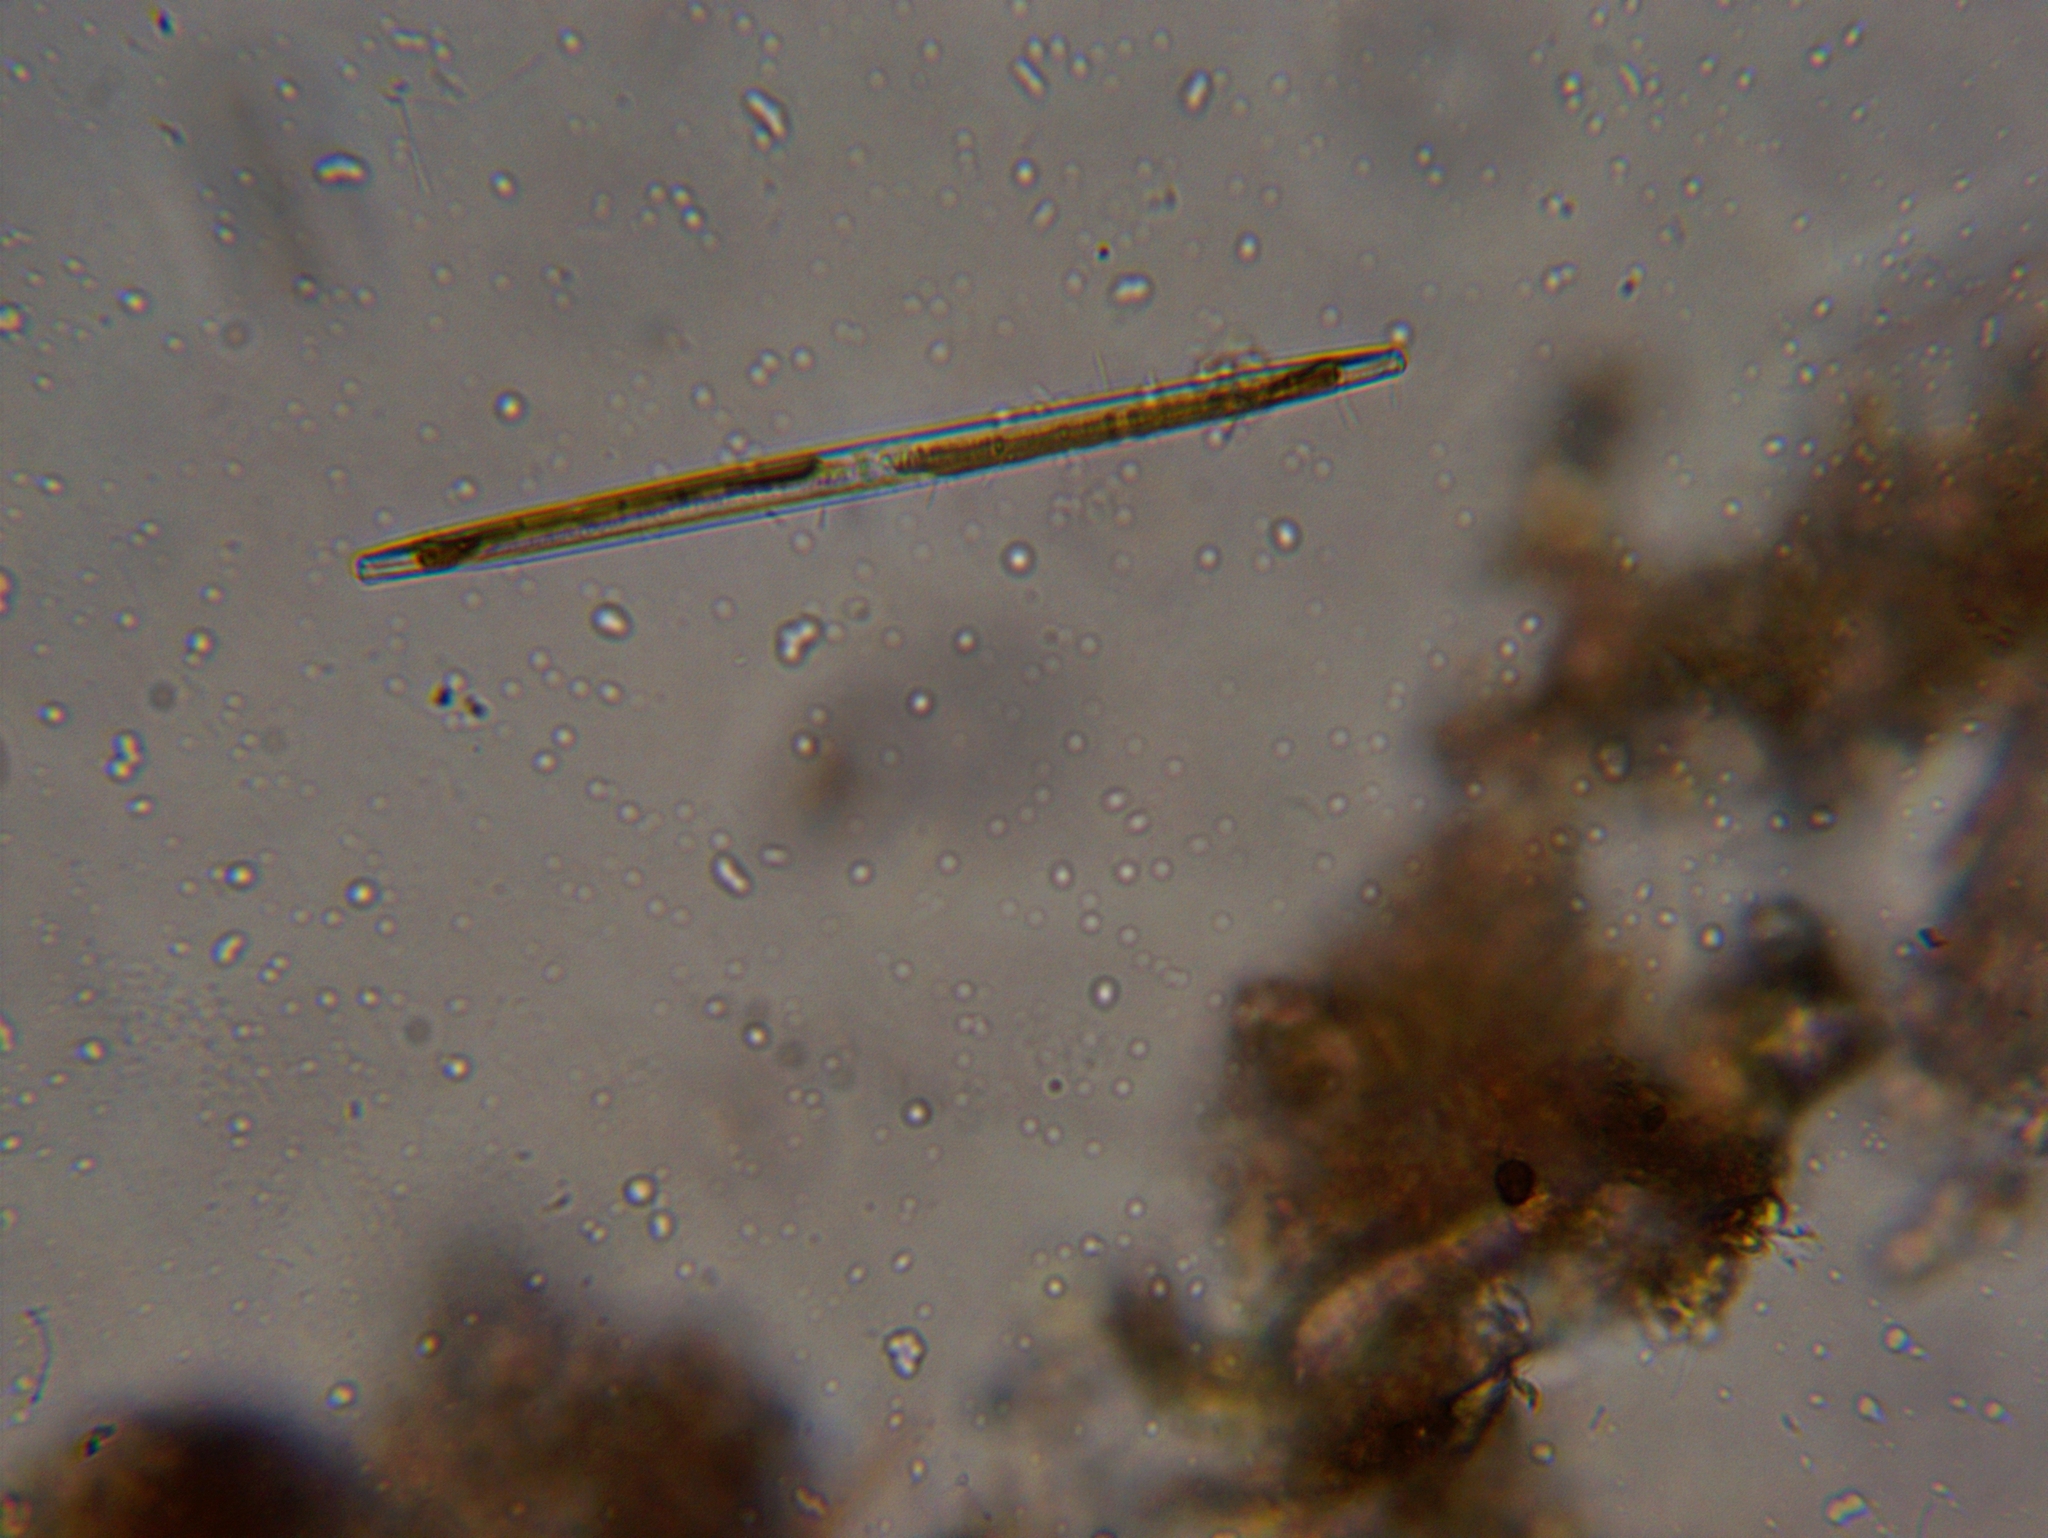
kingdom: Chromista
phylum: Ochrophyta
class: Bacillariophyceae
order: Bacillariales
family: Bacillariaceae
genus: Nitzschia
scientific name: Nitzschia
